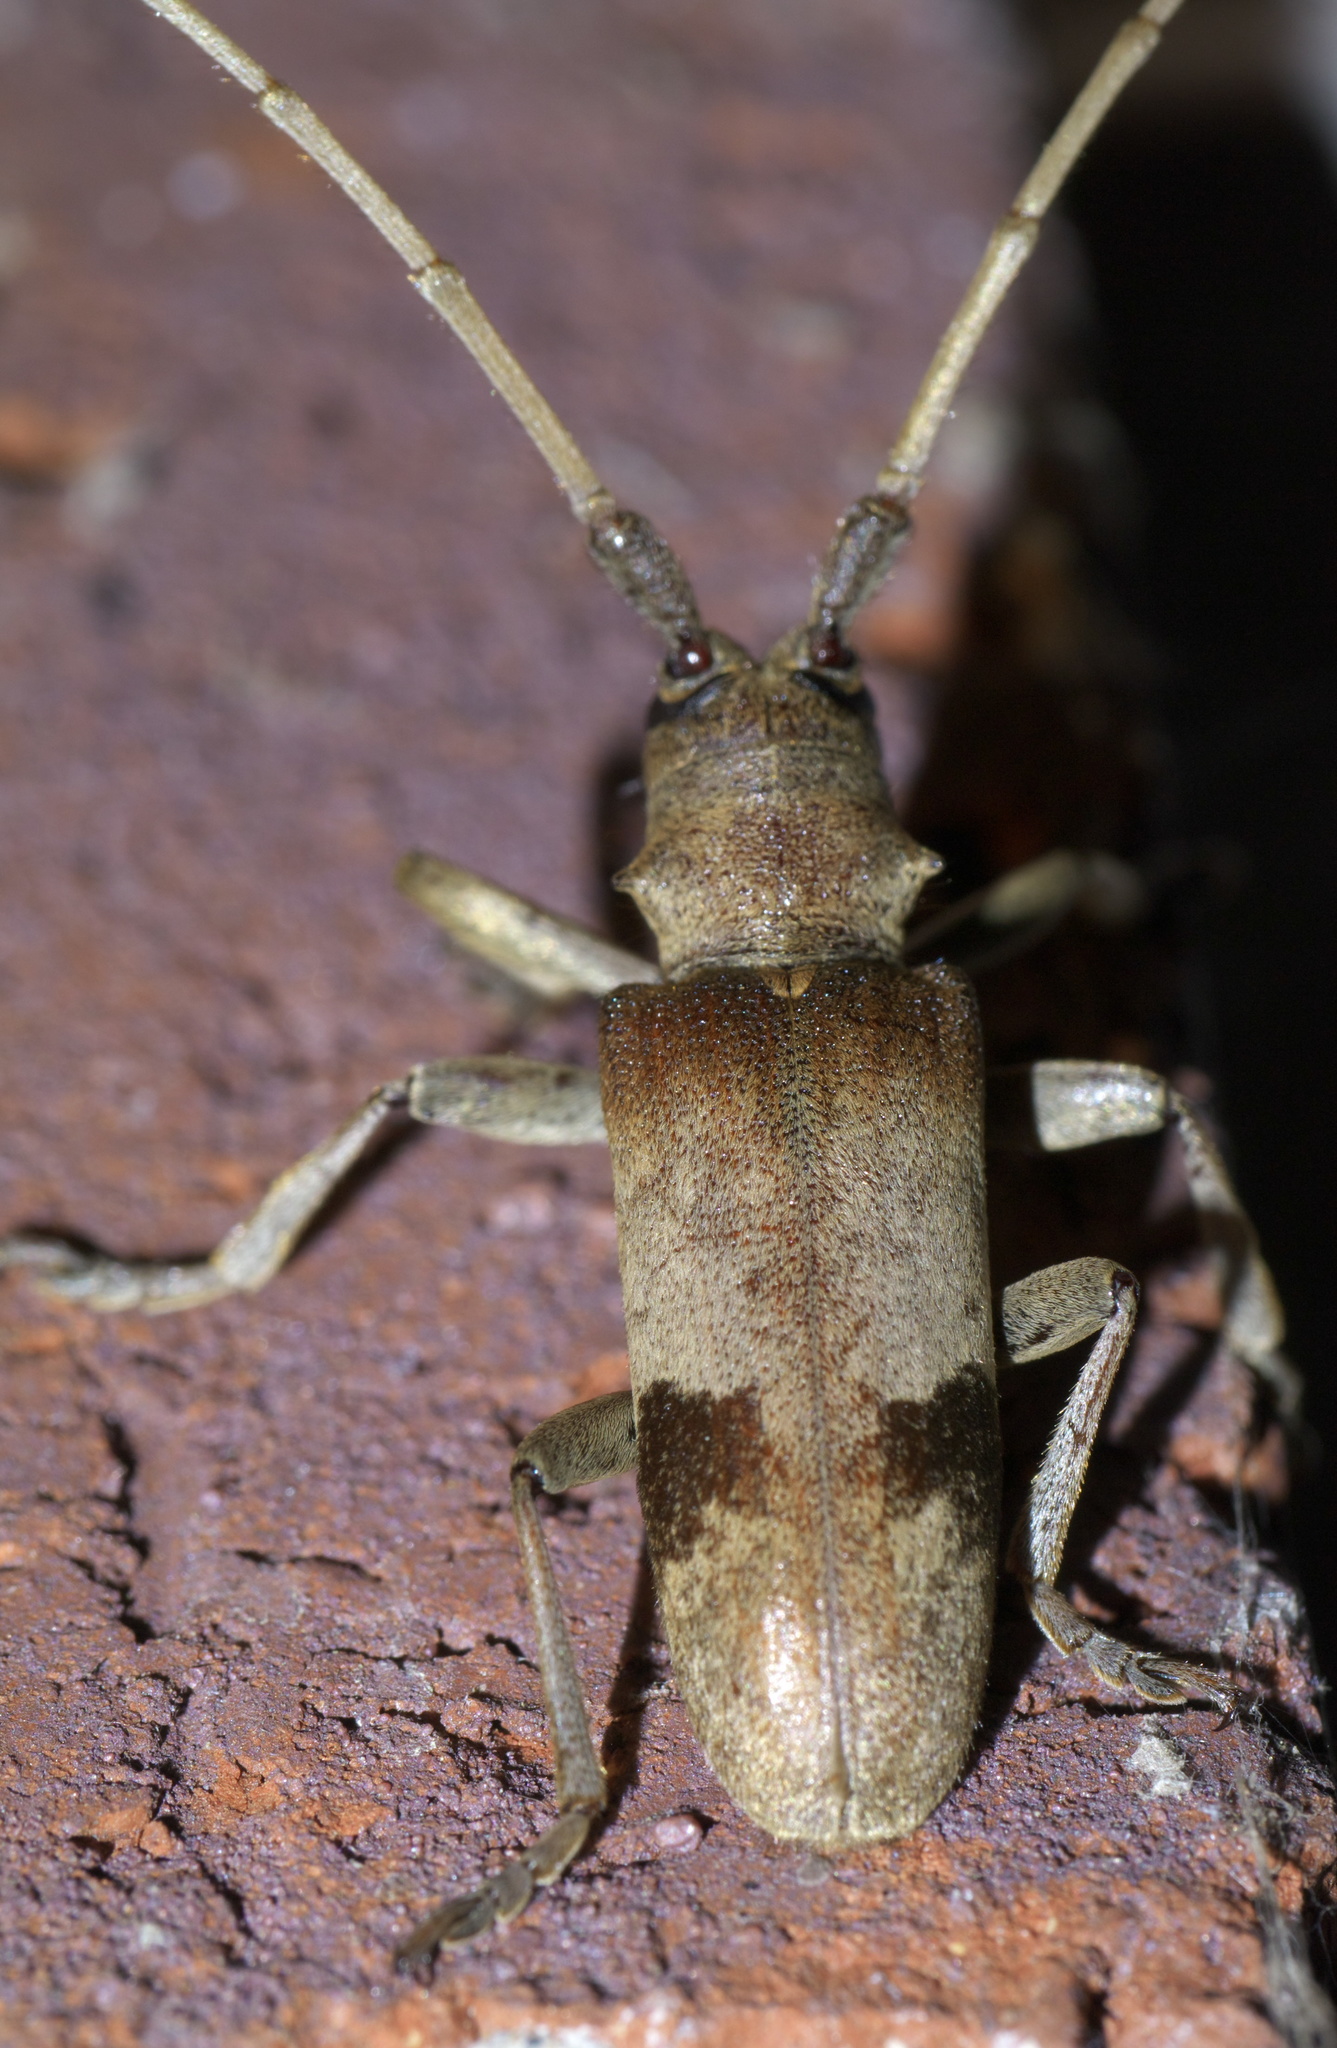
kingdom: Animalia
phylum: Arthropoda
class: Insecta
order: Coleoptera
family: Cerambycidae
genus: Goes
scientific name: Goes pulcher
